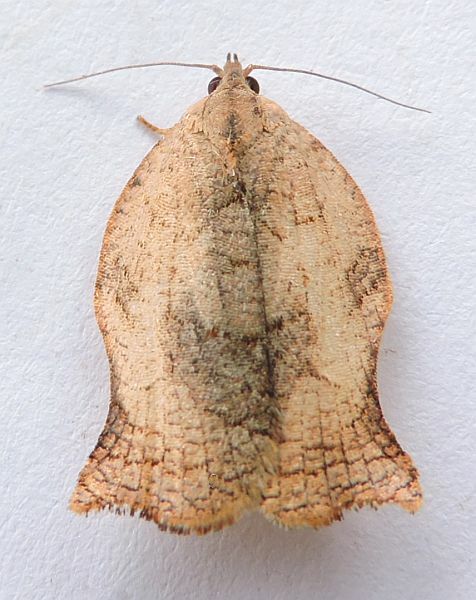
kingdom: Animalia
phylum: Arthropoda
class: Insecta
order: Lepidoptera
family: Tortricidae
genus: Archips
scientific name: Archips purpurana
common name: Omnivorous leafroller
